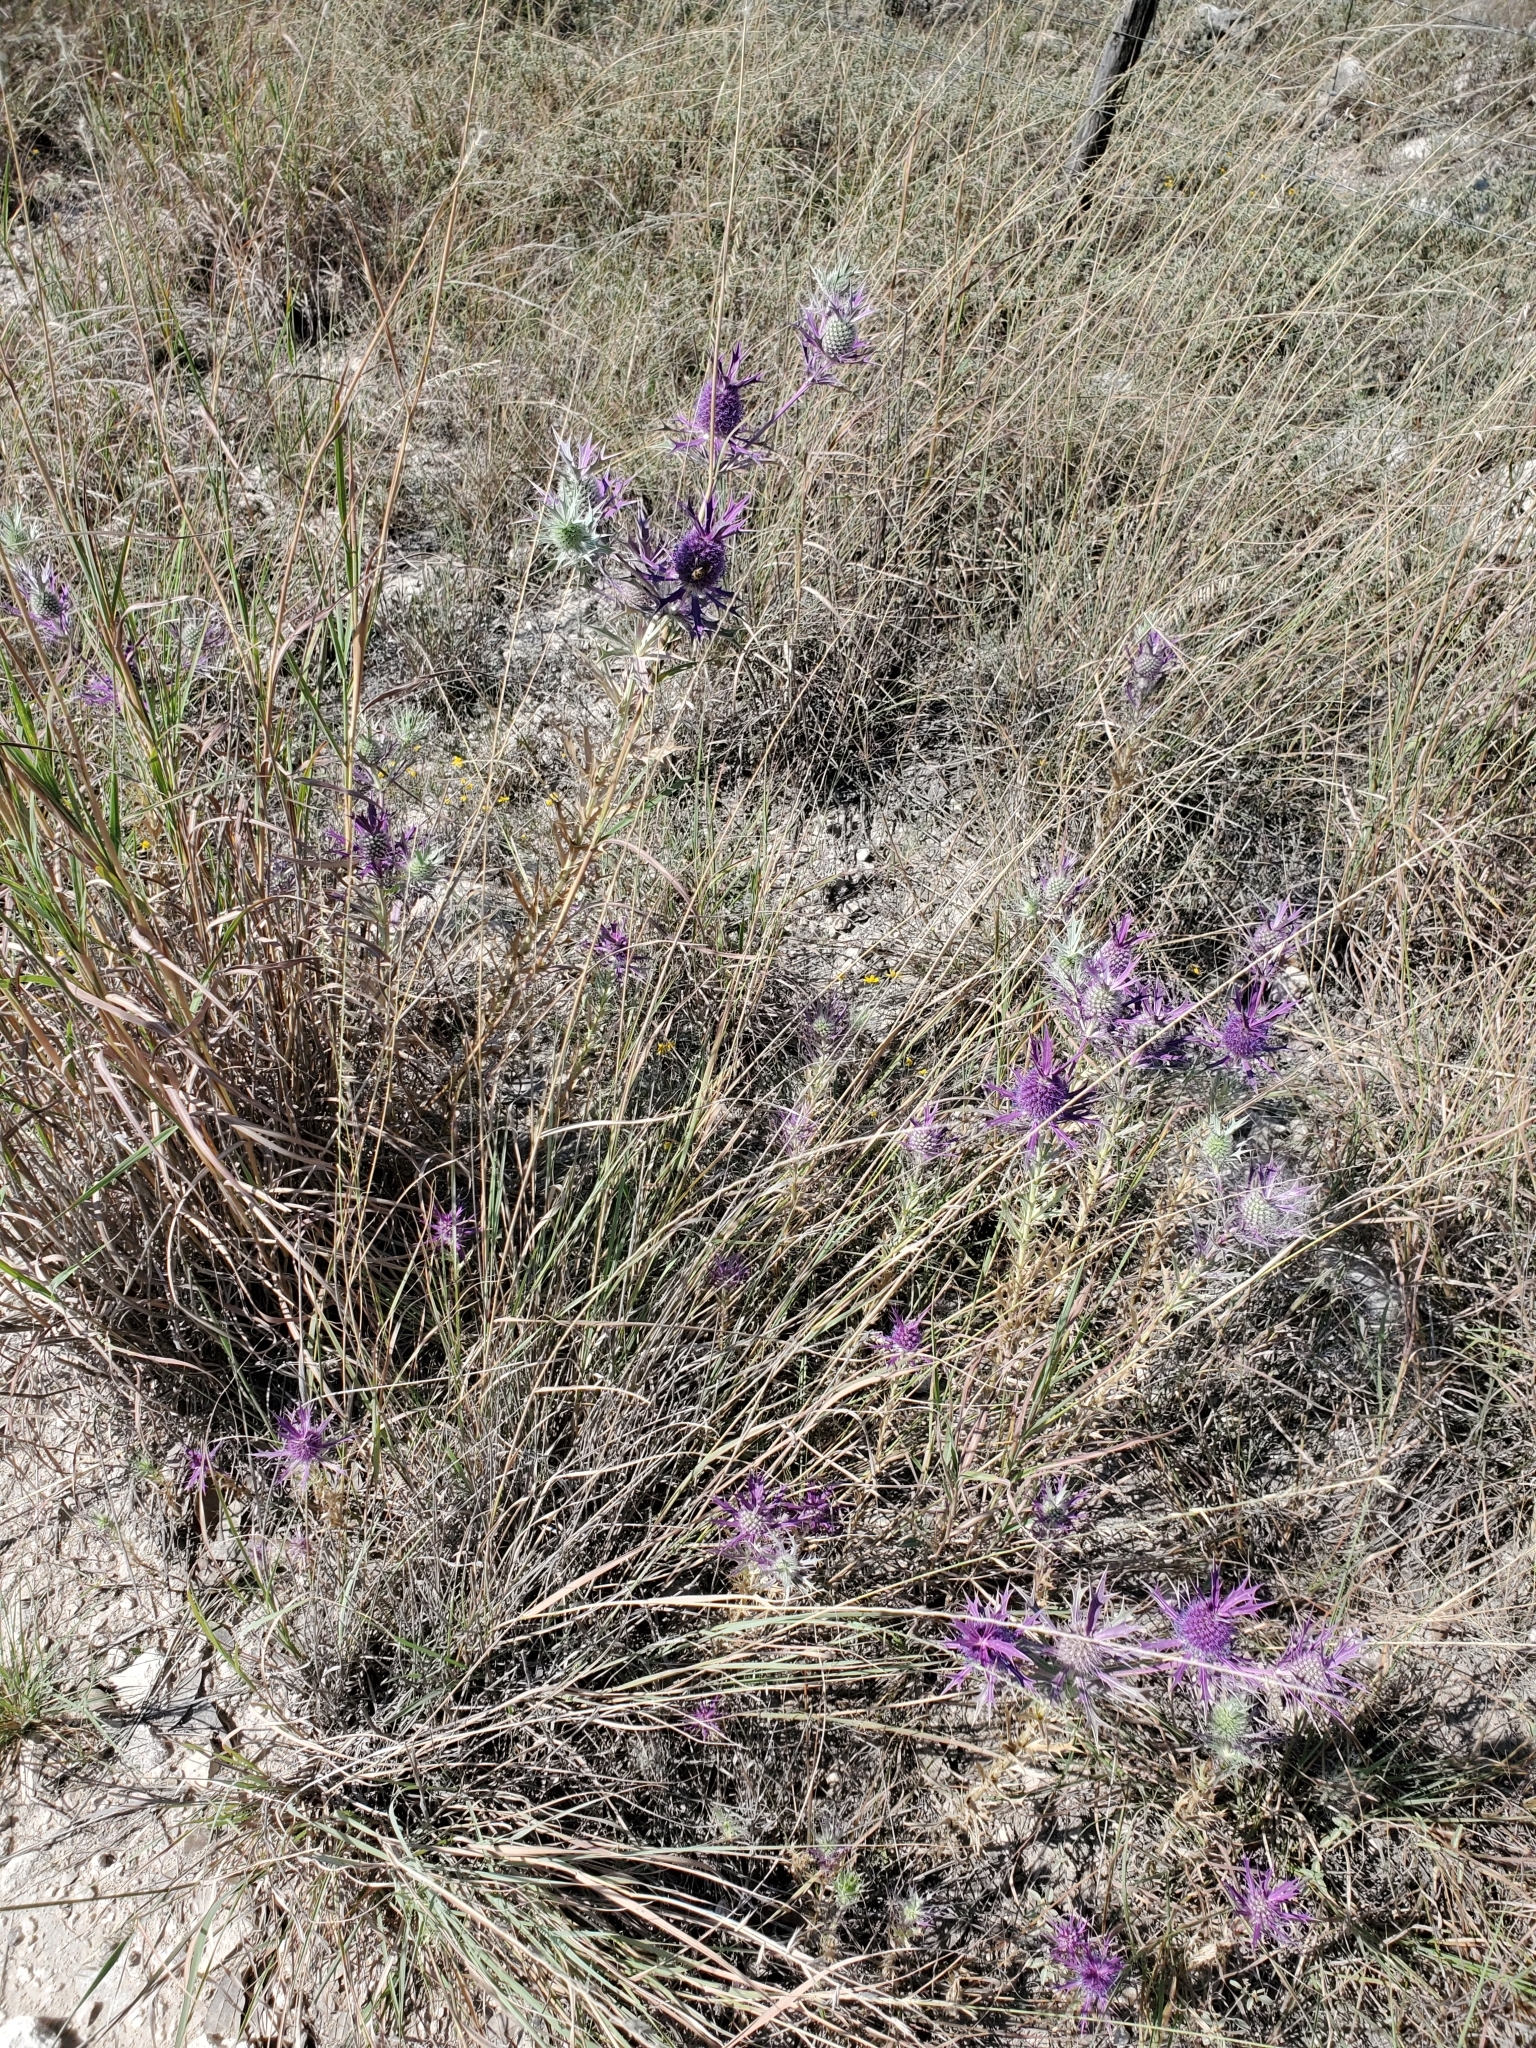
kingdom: Plantae
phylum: Tracheophyta
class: Magnoliopsida
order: Apiales
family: Apiaceae
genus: Eryngium
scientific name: Eryngium leavenworthii
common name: Leavenworth's eryngo
